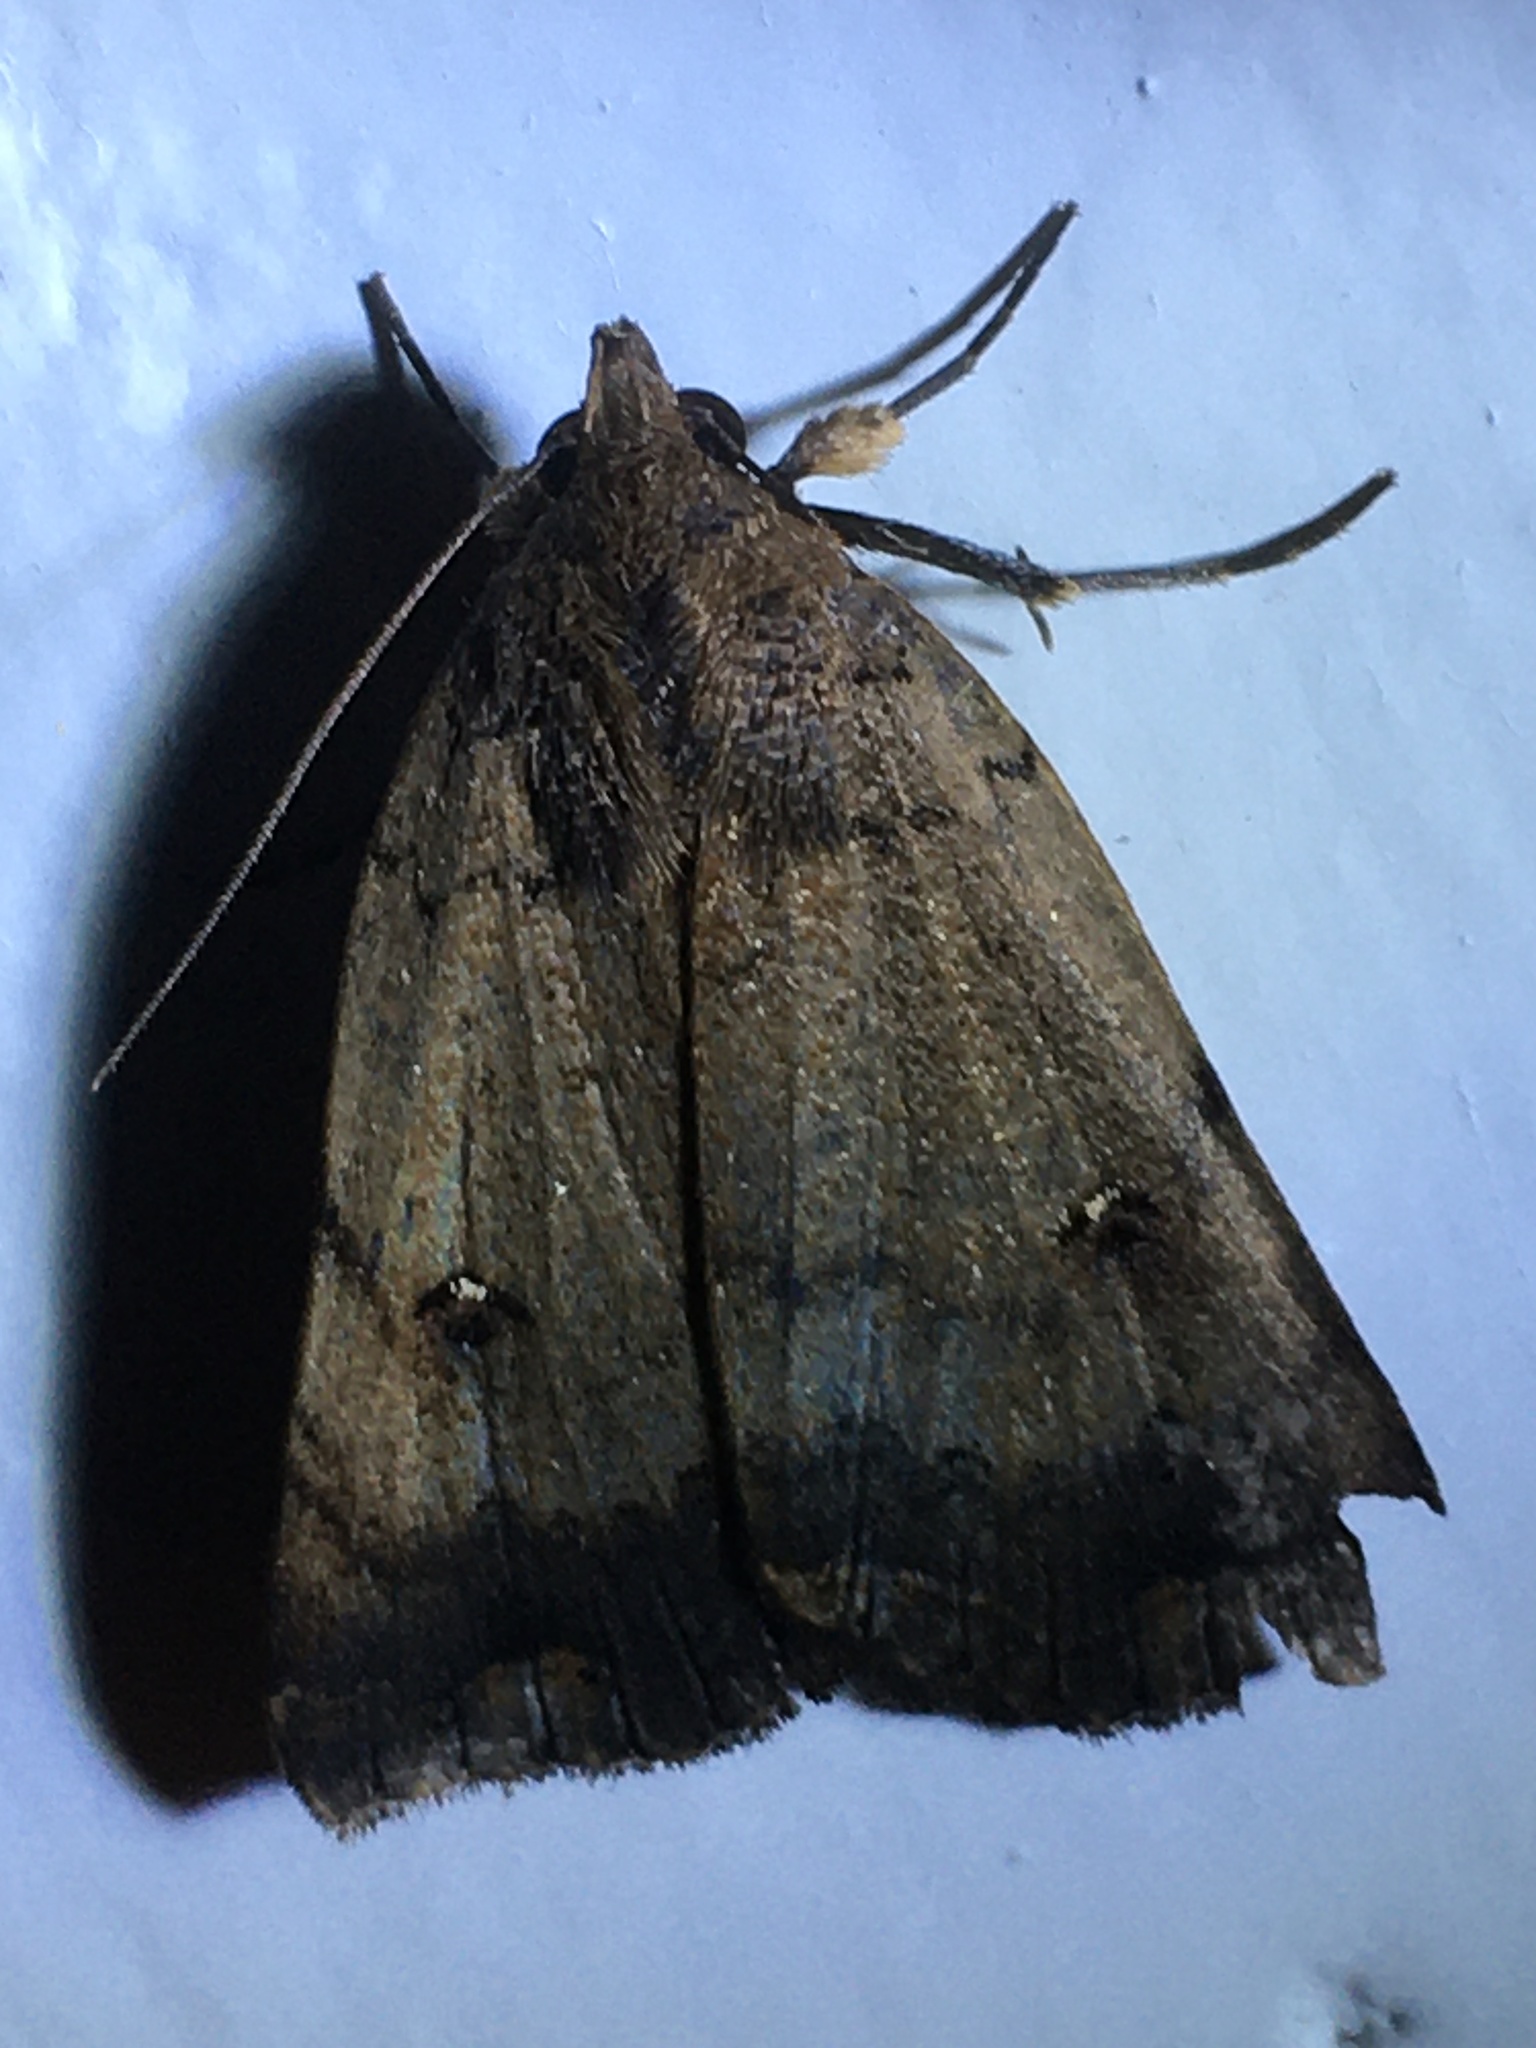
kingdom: Animalia
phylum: Arthropoda
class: Insecta
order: Lepidoptera
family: Erebidae
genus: Pyrgion
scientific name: Pyrgion repanda
